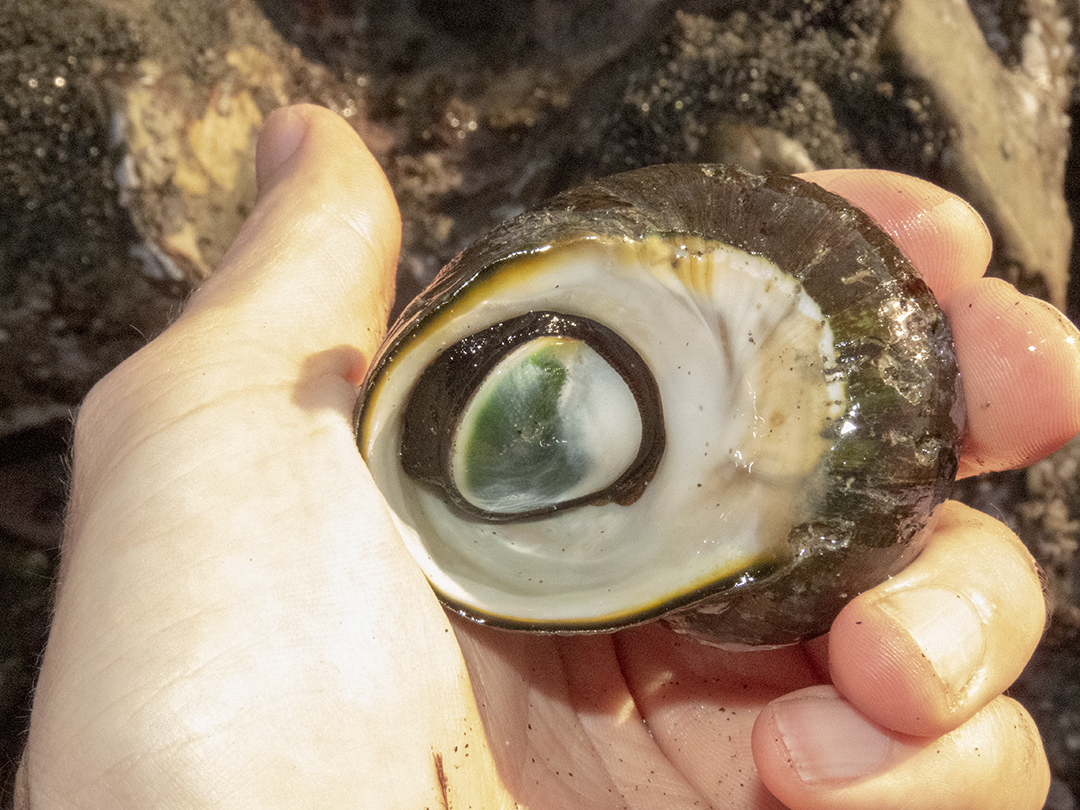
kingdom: Animalia
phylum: Mollusca
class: Gastropoda
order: Trochida
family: Turbinidae
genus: Lunella
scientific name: Lunella smaragda
